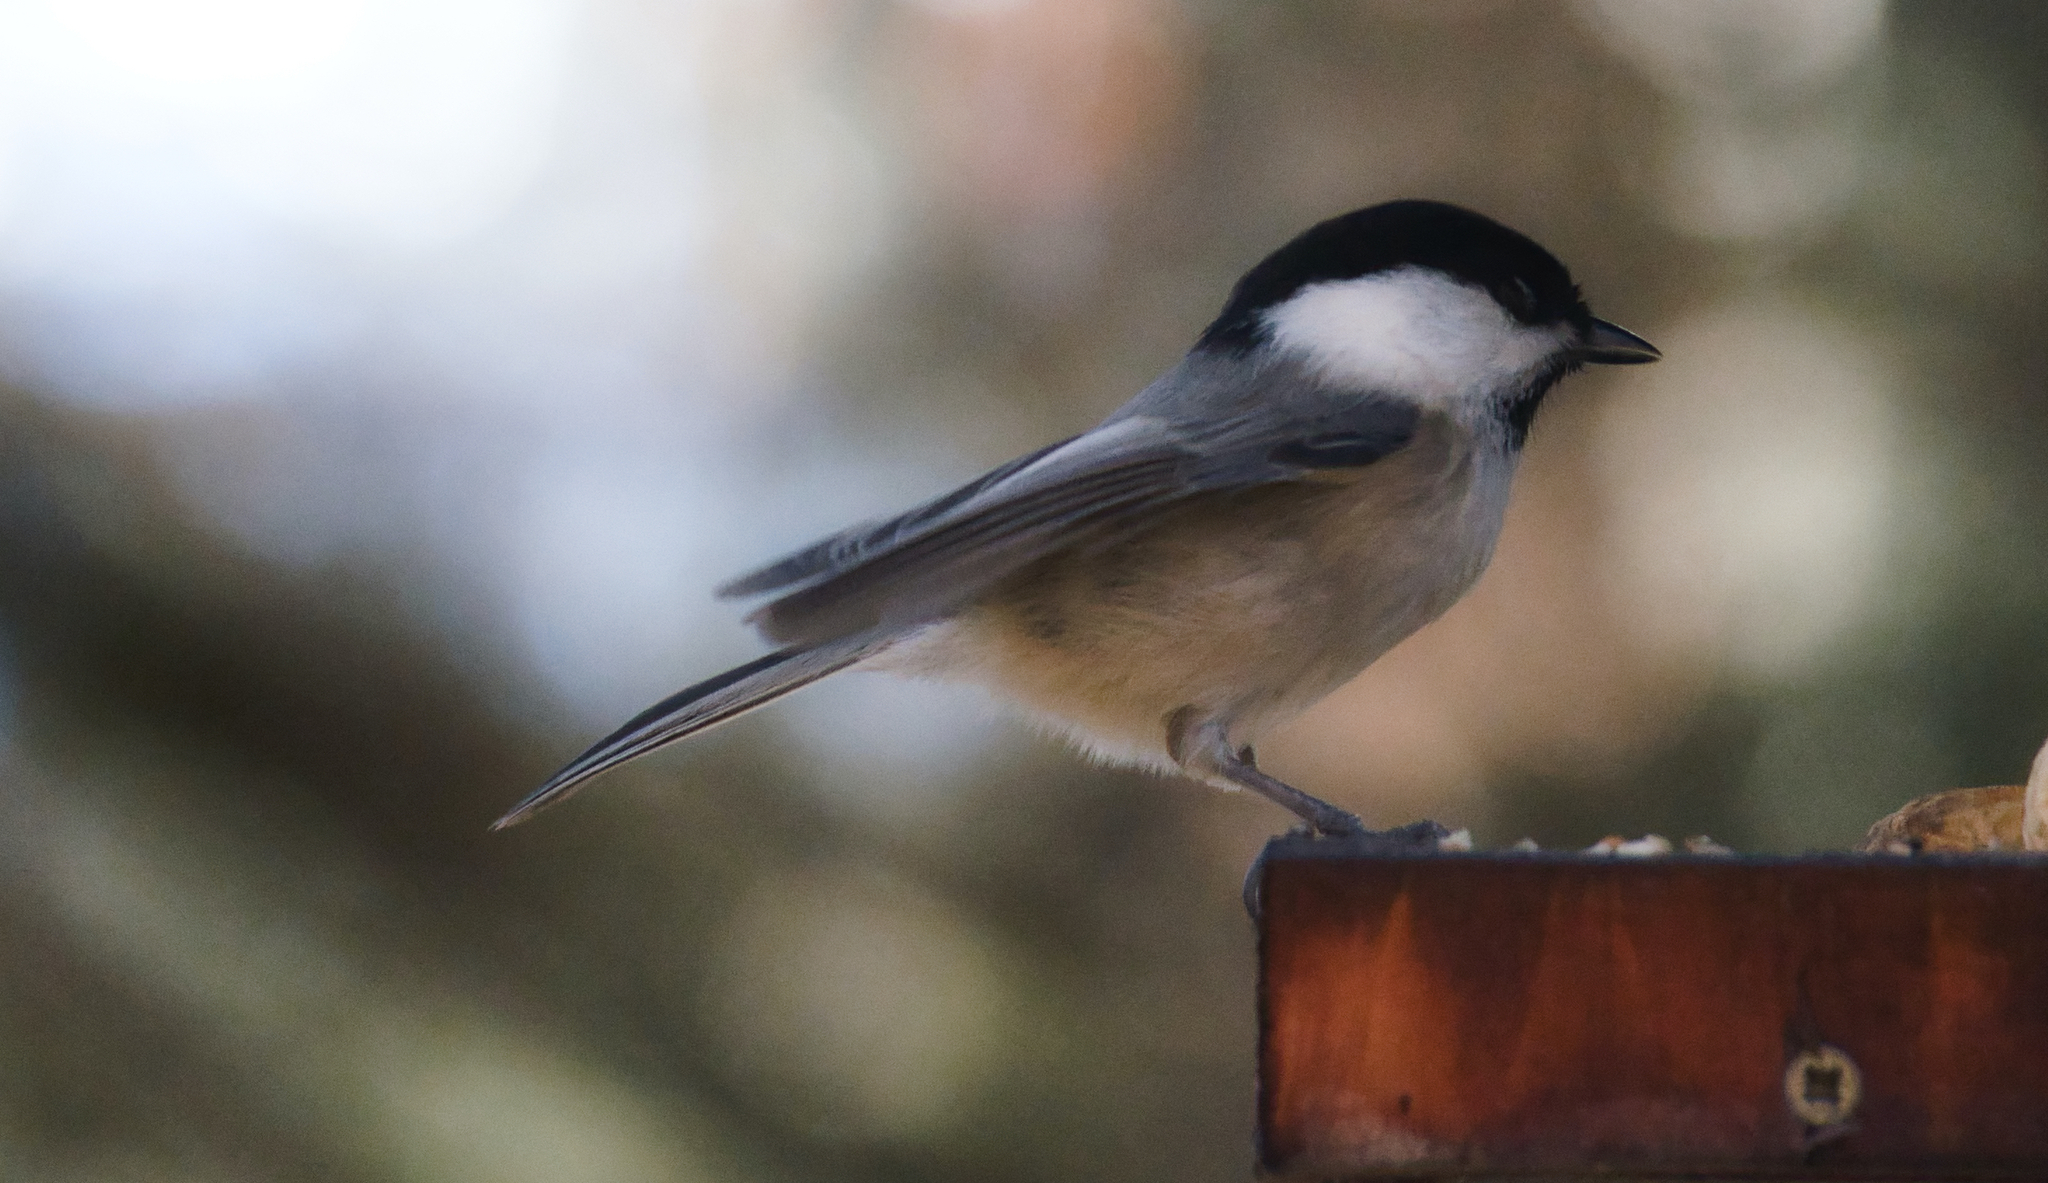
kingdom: Animalia
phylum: Chordata
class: Aves
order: Passeriformes
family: Paridae
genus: Poecile
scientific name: Poecile montanus
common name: Willow tit
